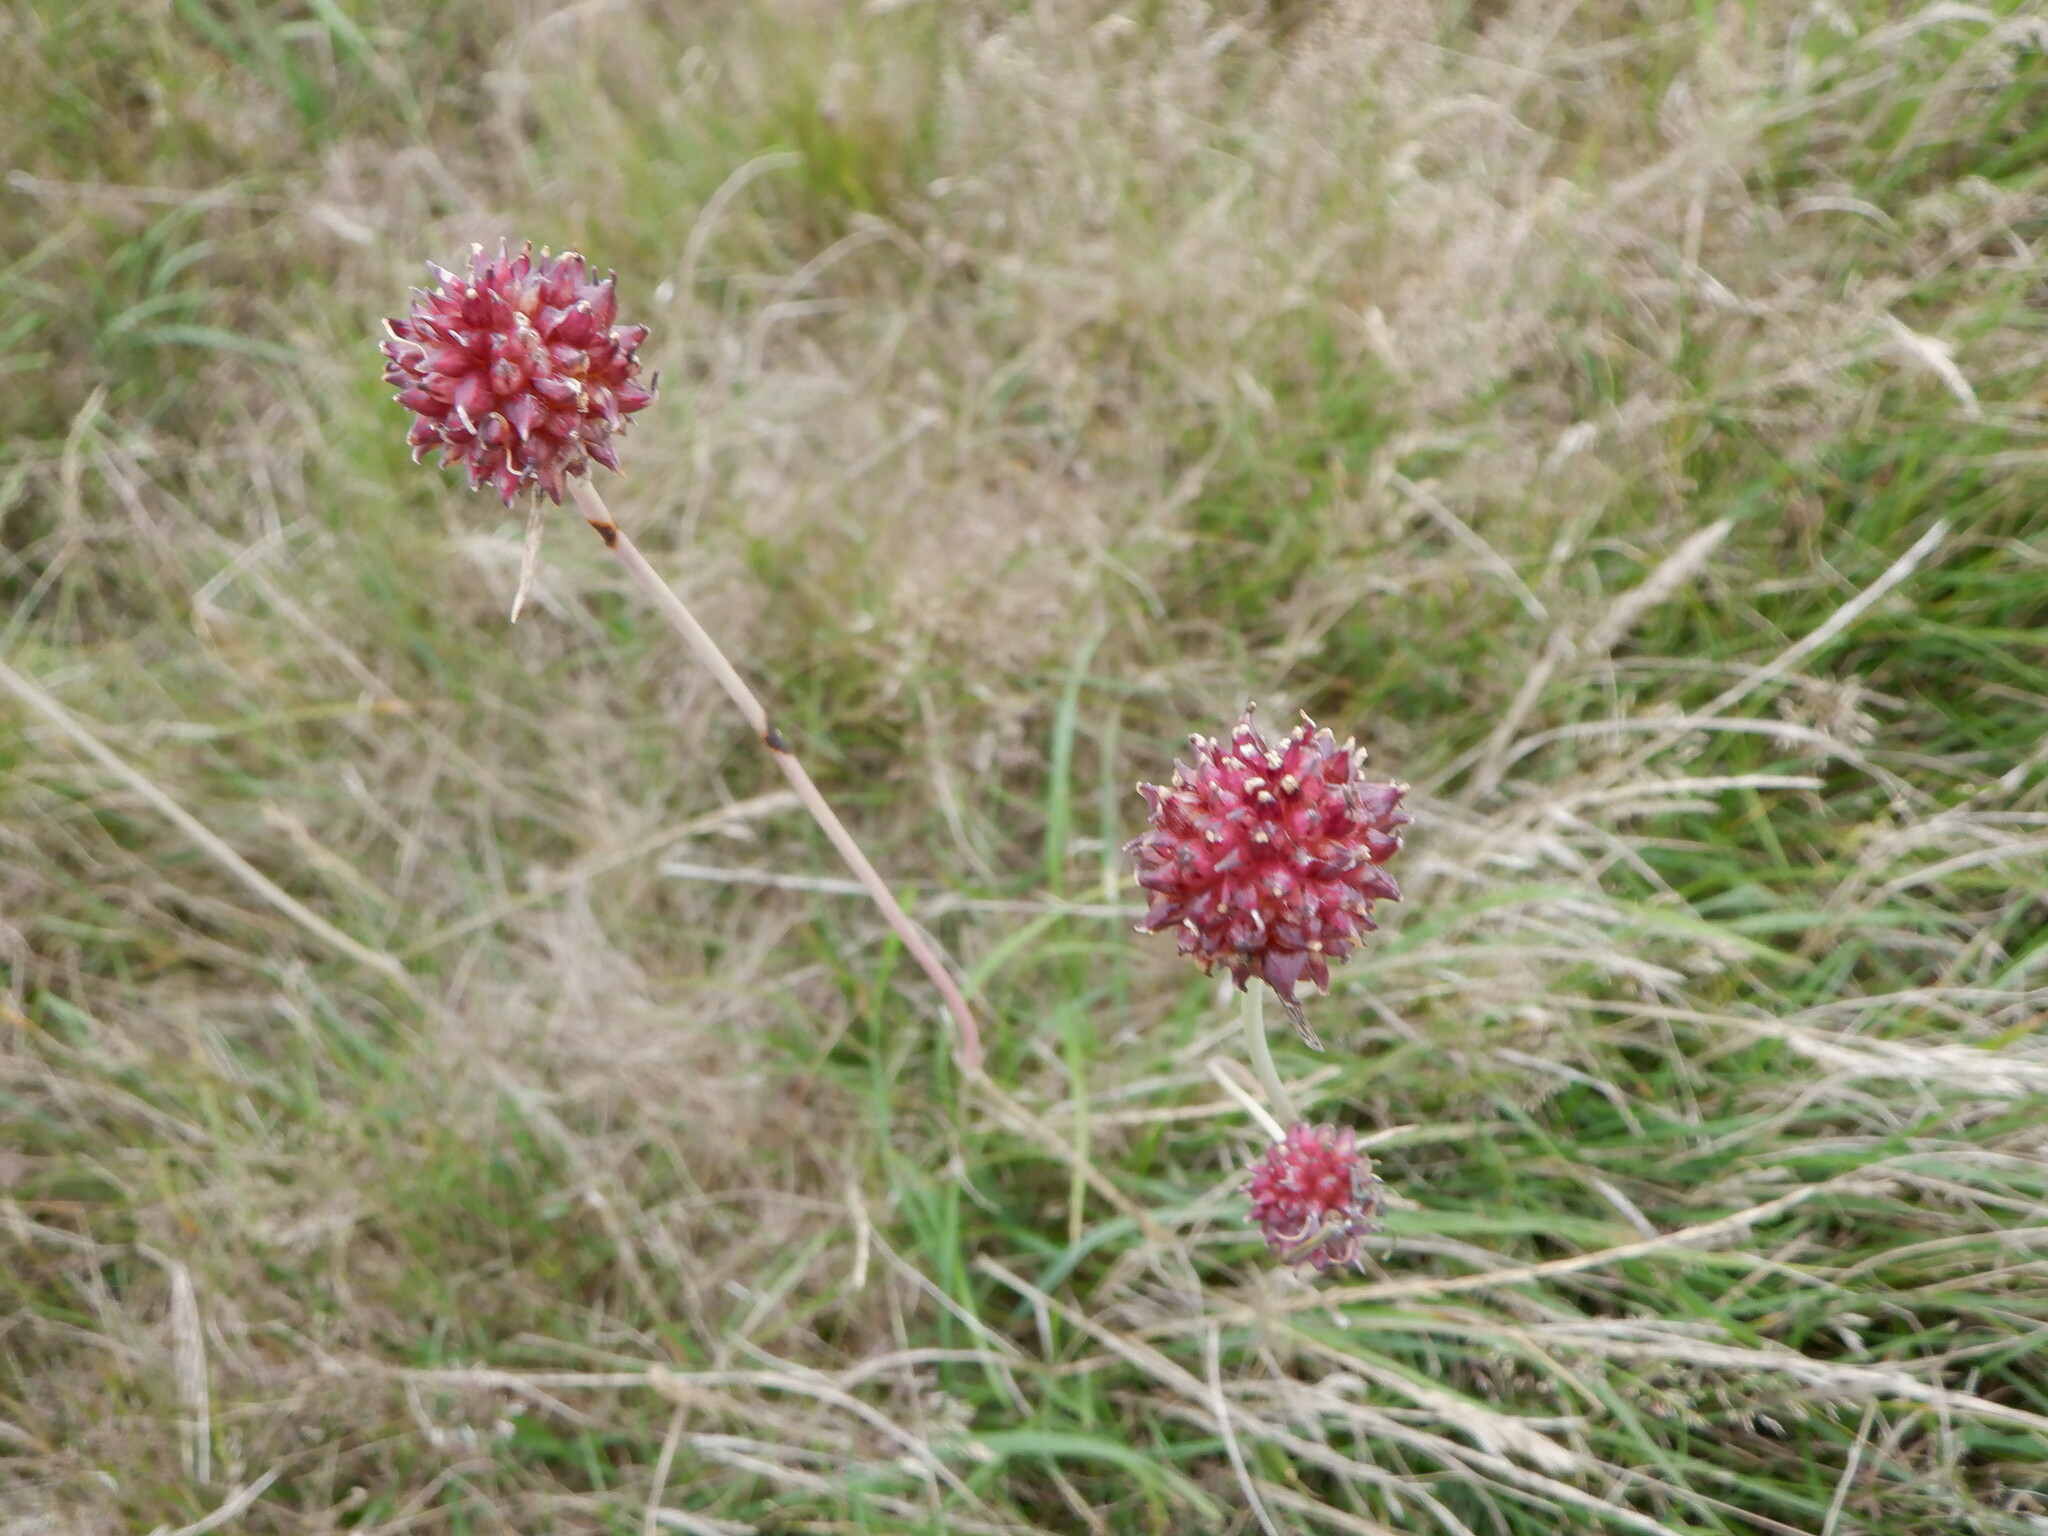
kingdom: Plantae
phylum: Tracheophyta
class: Liliopsida
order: Asparagales
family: Amaryllidaceae
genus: Allium
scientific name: Allium vineale
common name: Crow garlic
